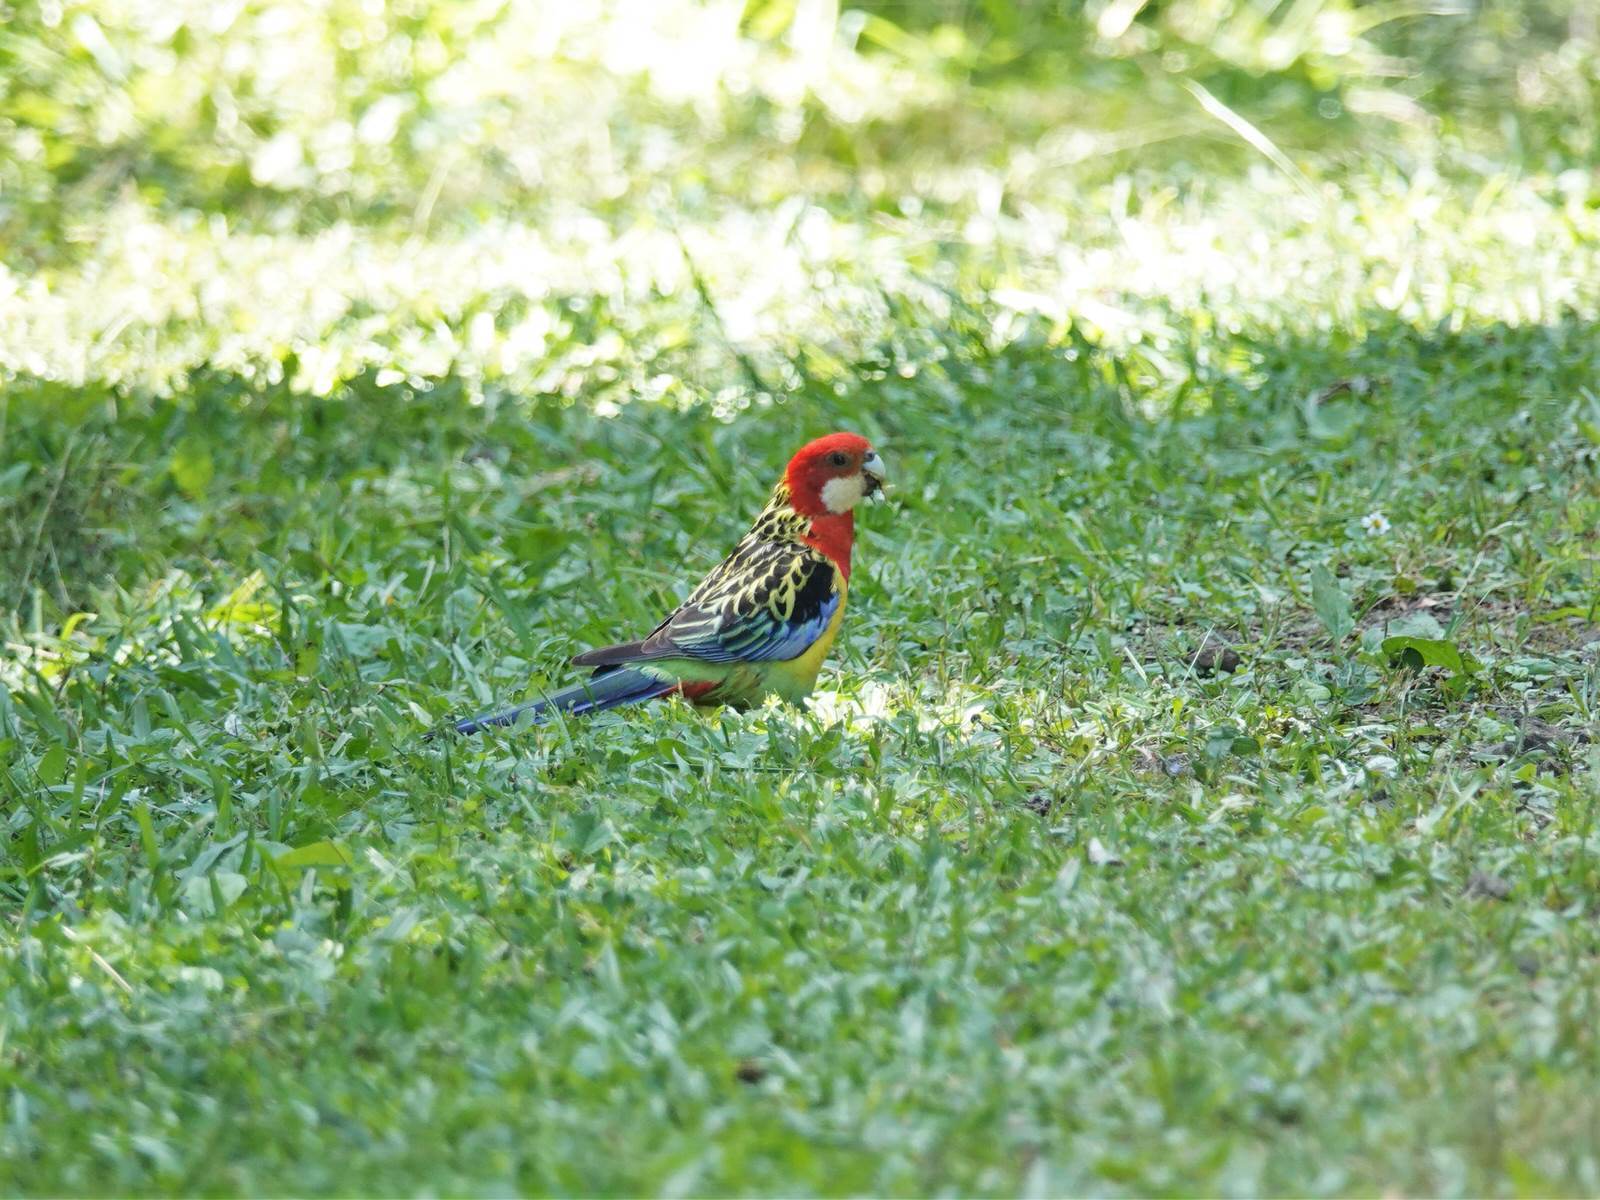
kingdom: Animalia
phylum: Chordata
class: Aves
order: Psittaciformes
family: Psittacidae
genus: Platycercus
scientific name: Platycercus eximius
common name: Eastern rosella
